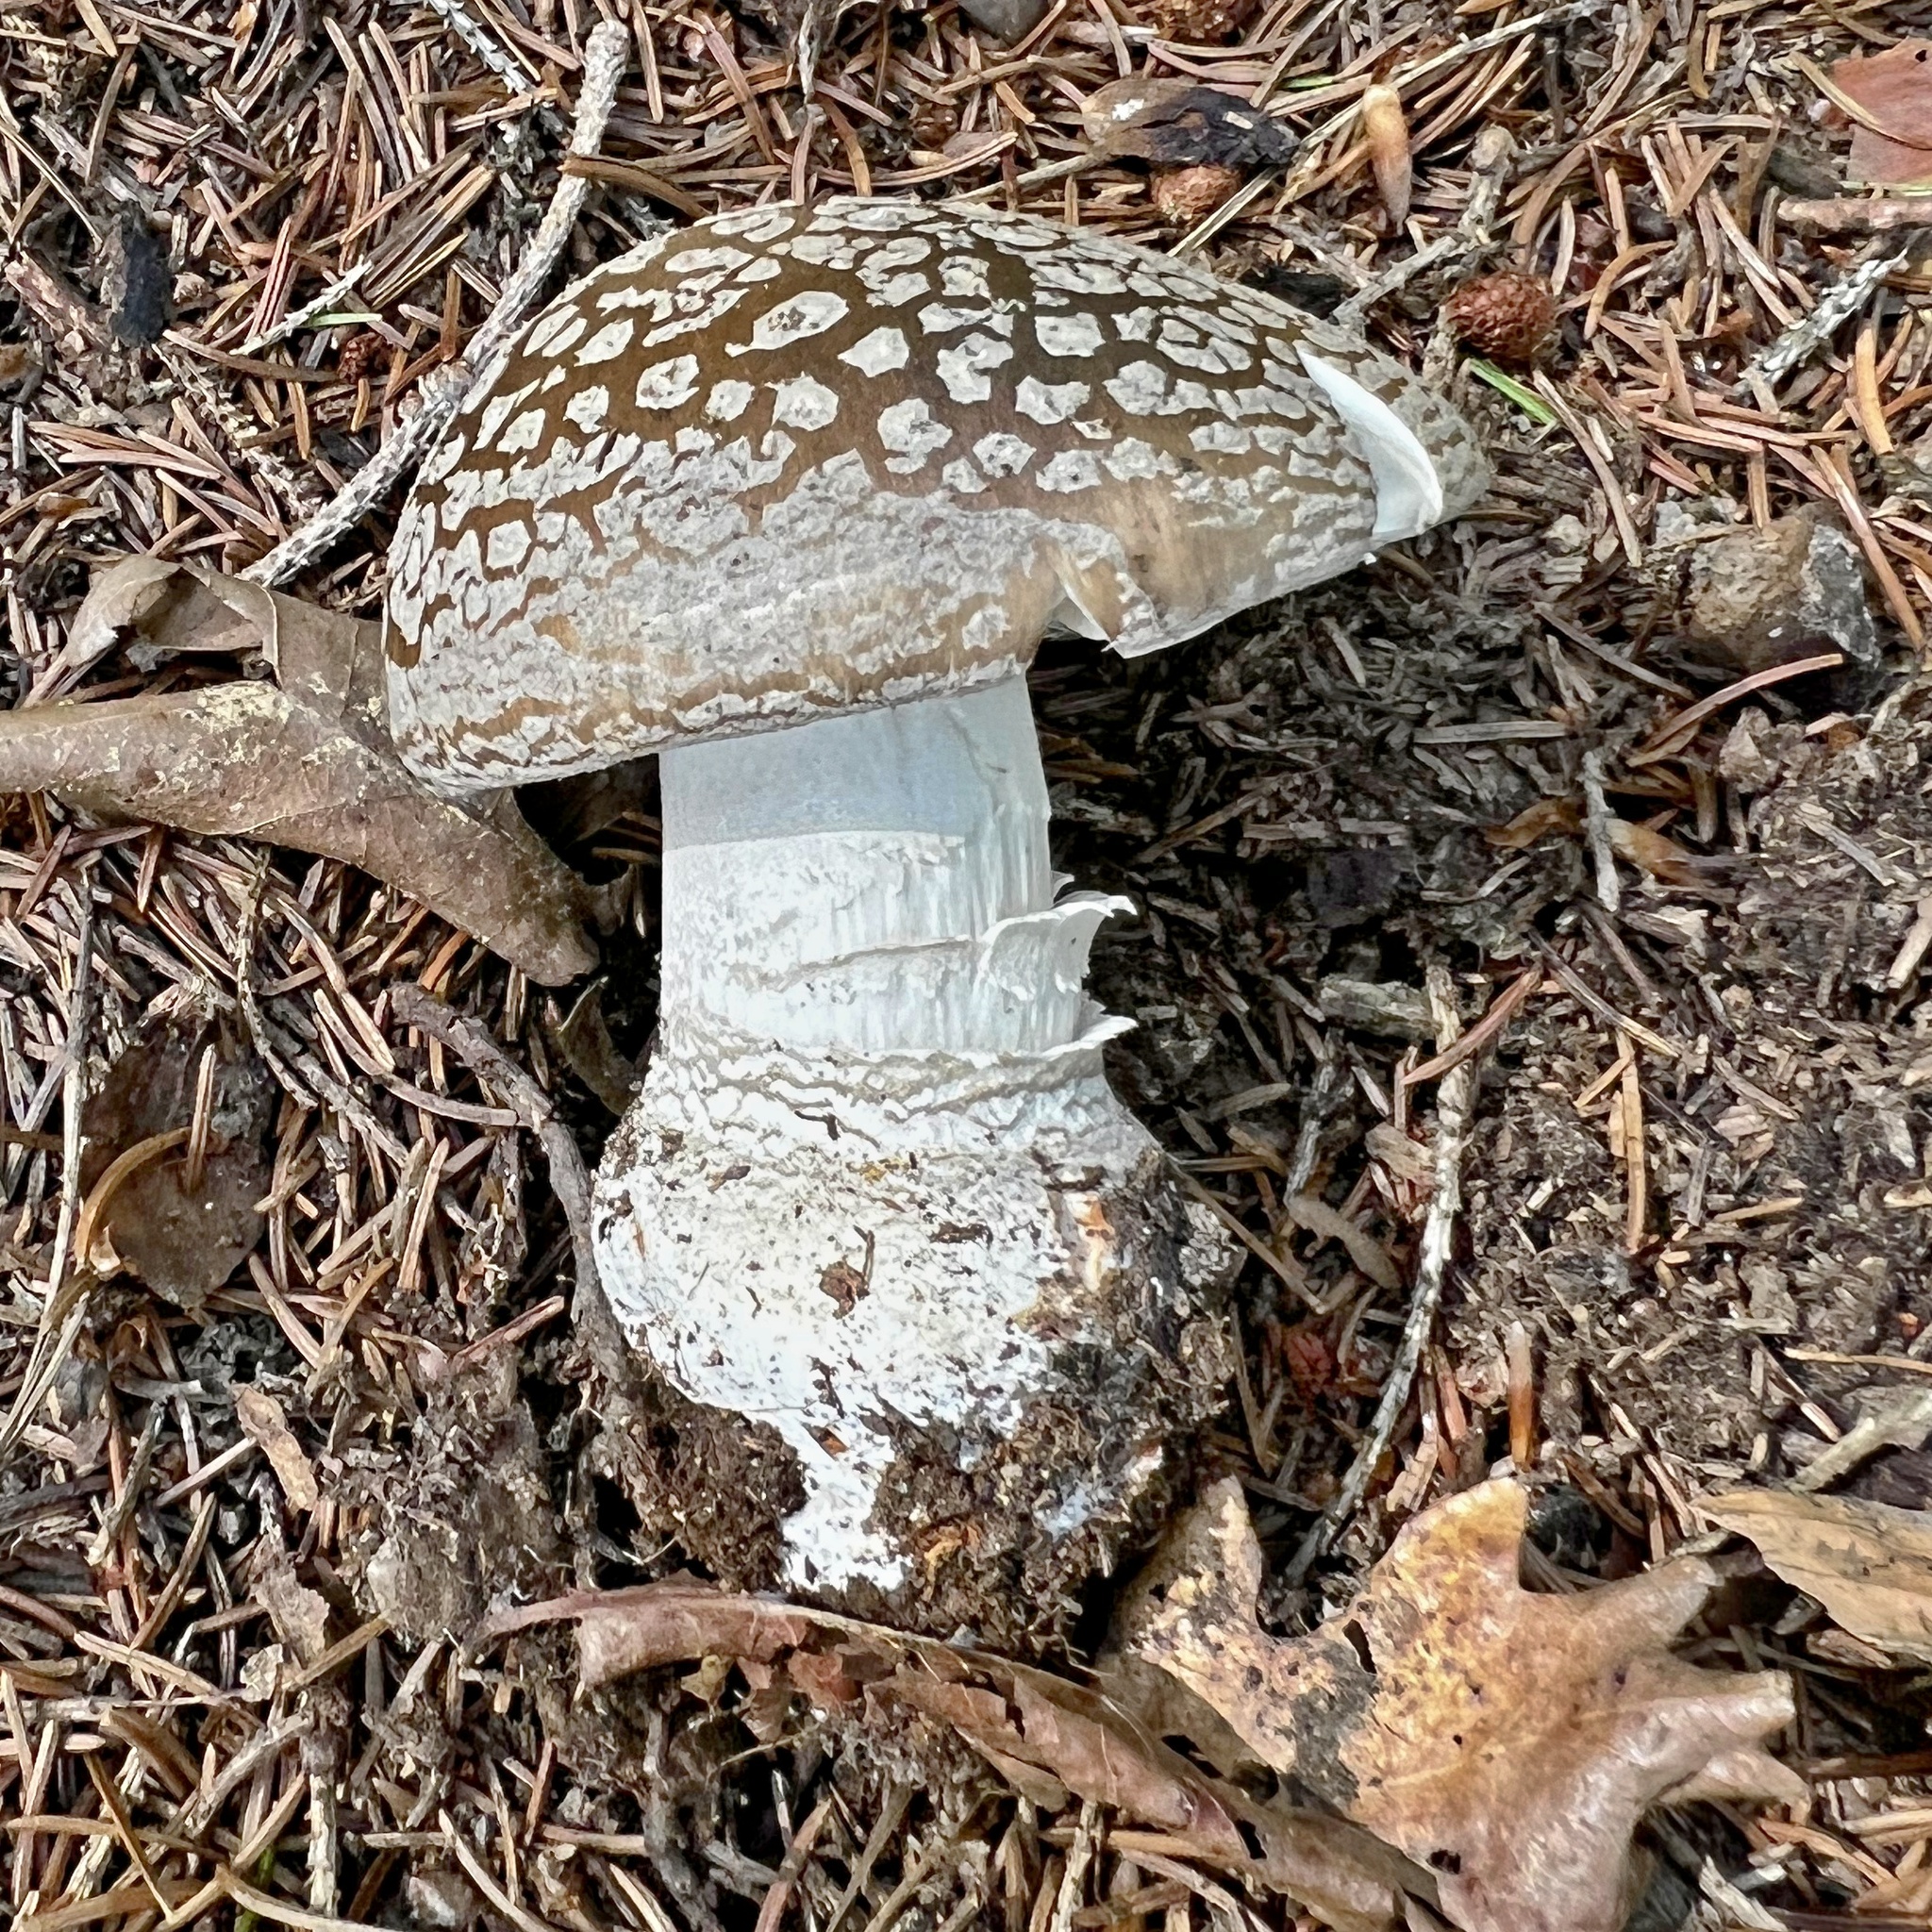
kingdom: Fungi
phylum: Basidiomycota
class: Agaricomycetes
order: Agaricales
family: Amanitaceae
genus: Amanita
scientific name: Amanita excelsa
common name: European false blusher
